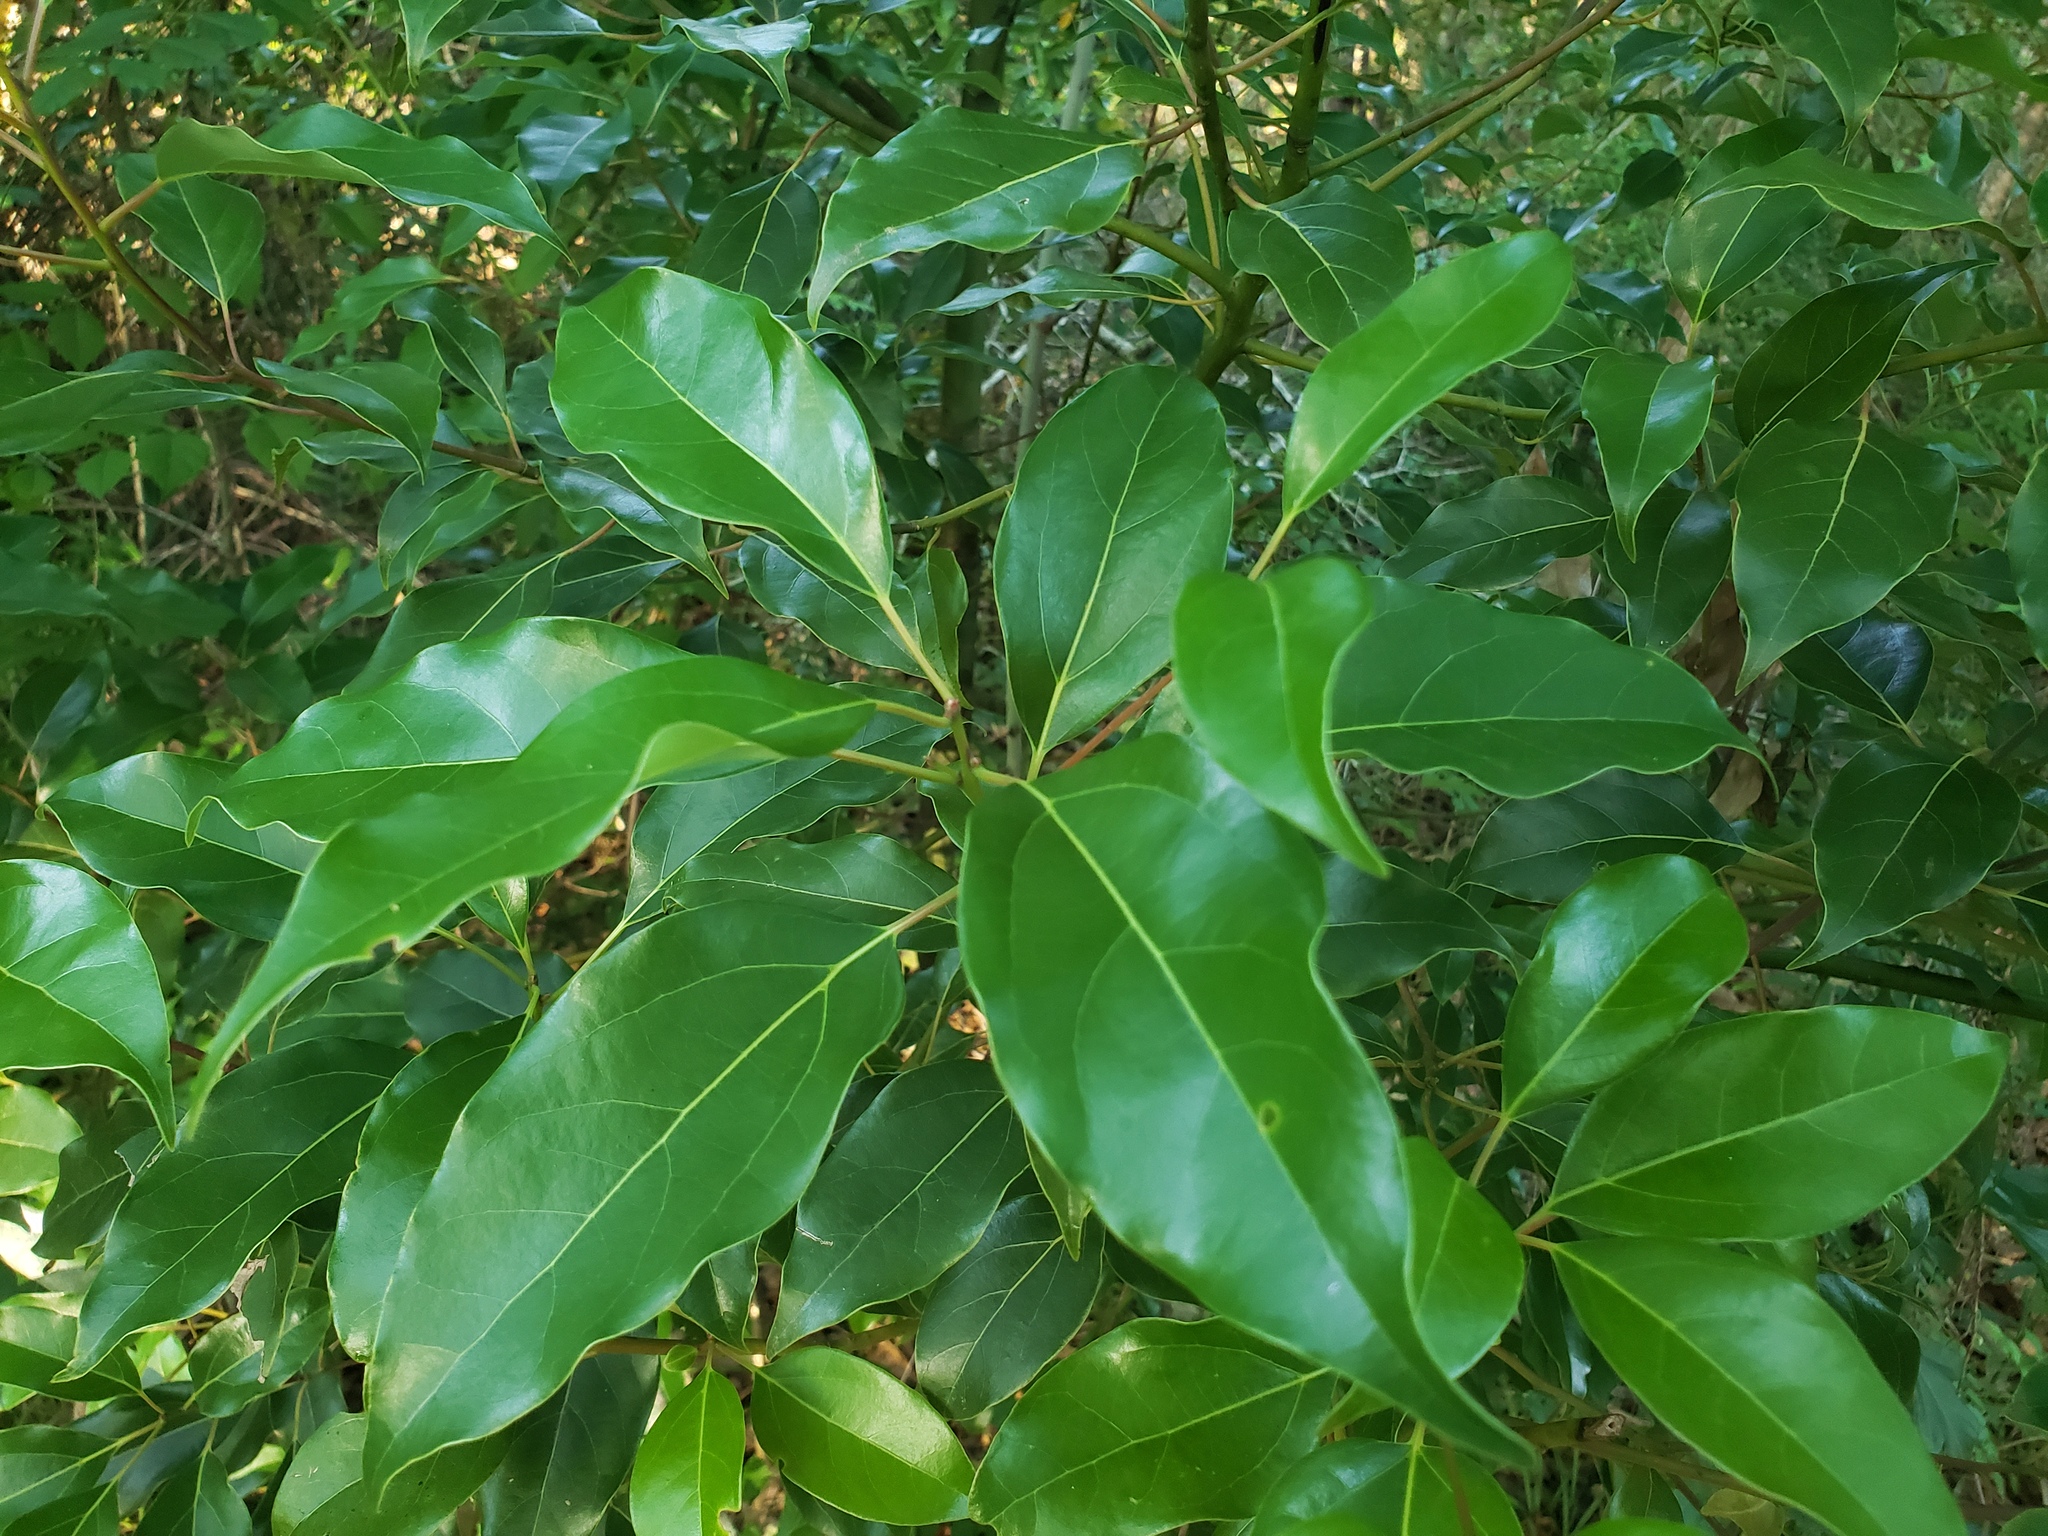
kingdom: Plantae
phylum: Tracheophyta
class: Magnoliopsida
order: Laurales
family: Lauraceae
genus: Cinnamomum
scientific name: Cinnamomum camphora
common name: Camphortree
